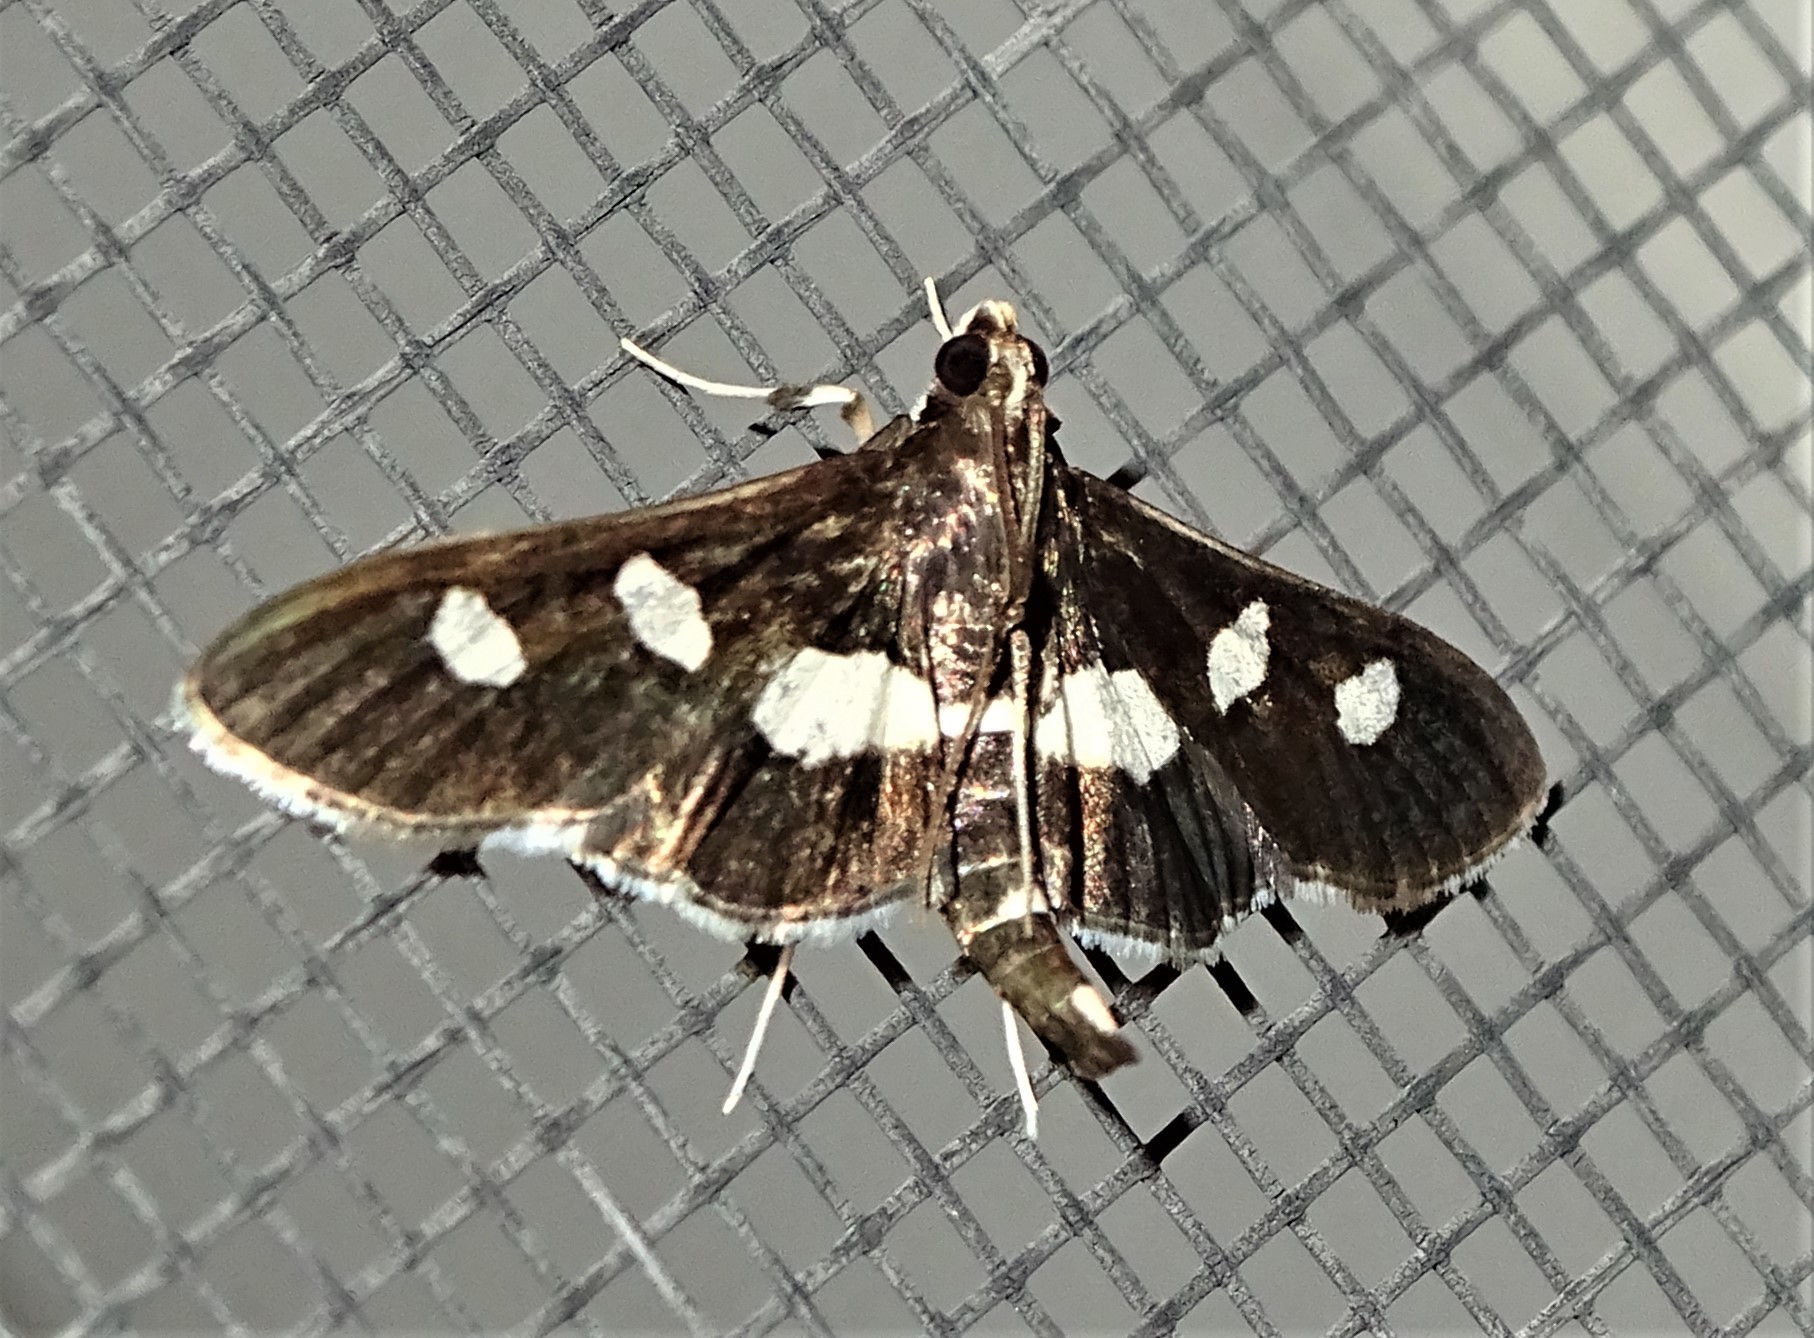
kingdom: Animalia
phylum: Arthropoda
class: Insecta
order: Lepidoptera
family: Crambidae
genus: Desmia
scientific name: Desmia
